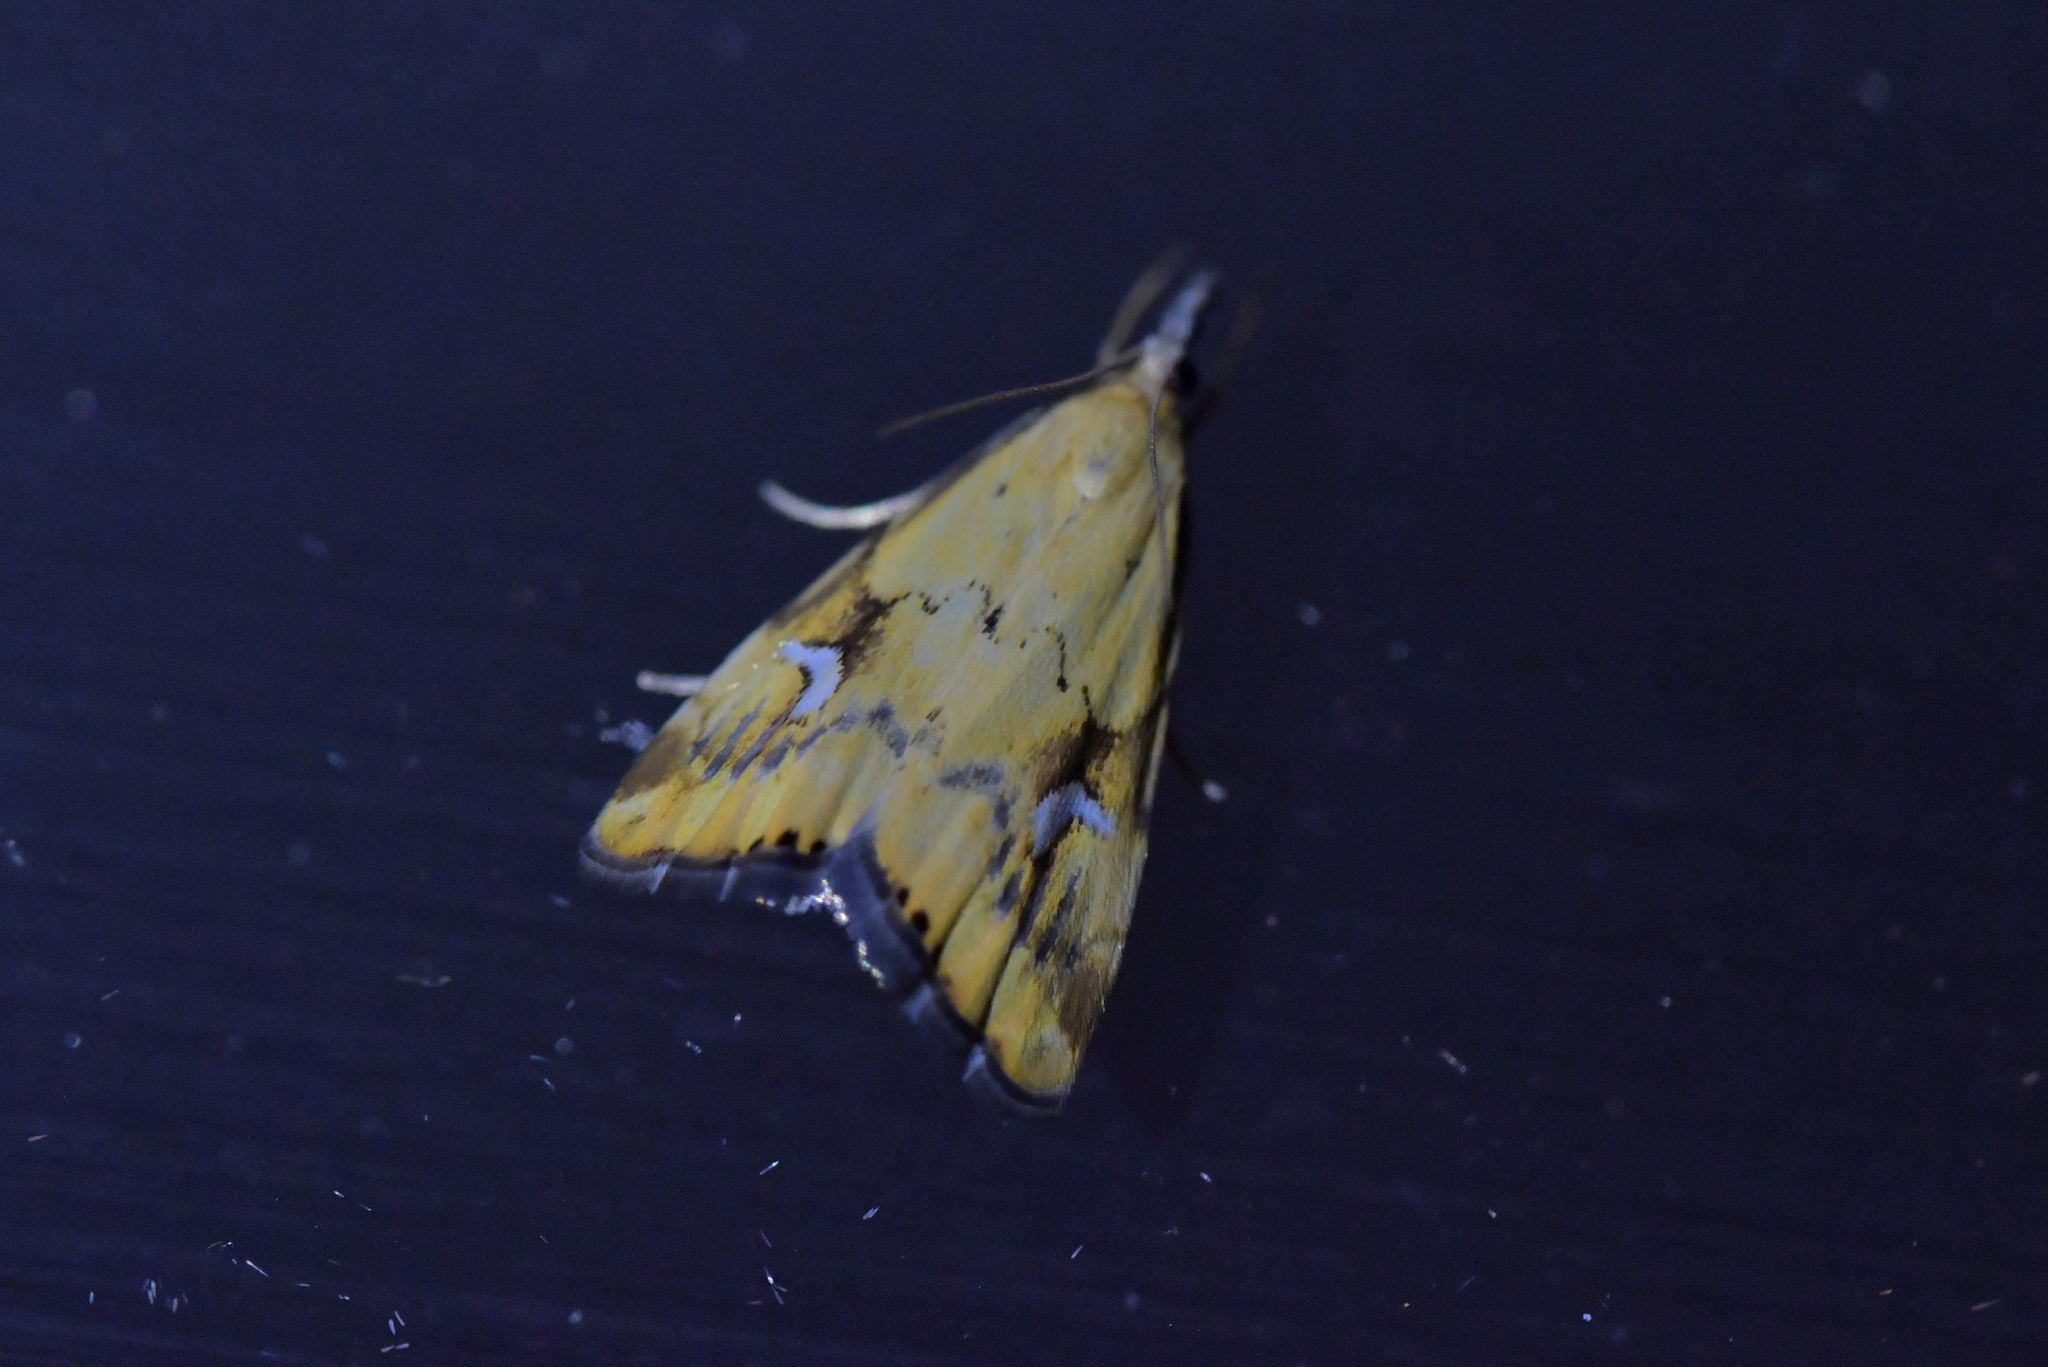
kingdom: Animalia
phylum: Arthropoda
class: Insecta
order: Lepidoptera
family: Crambidae
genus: Glaucocharis
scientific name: Glaucocharis lepidella
